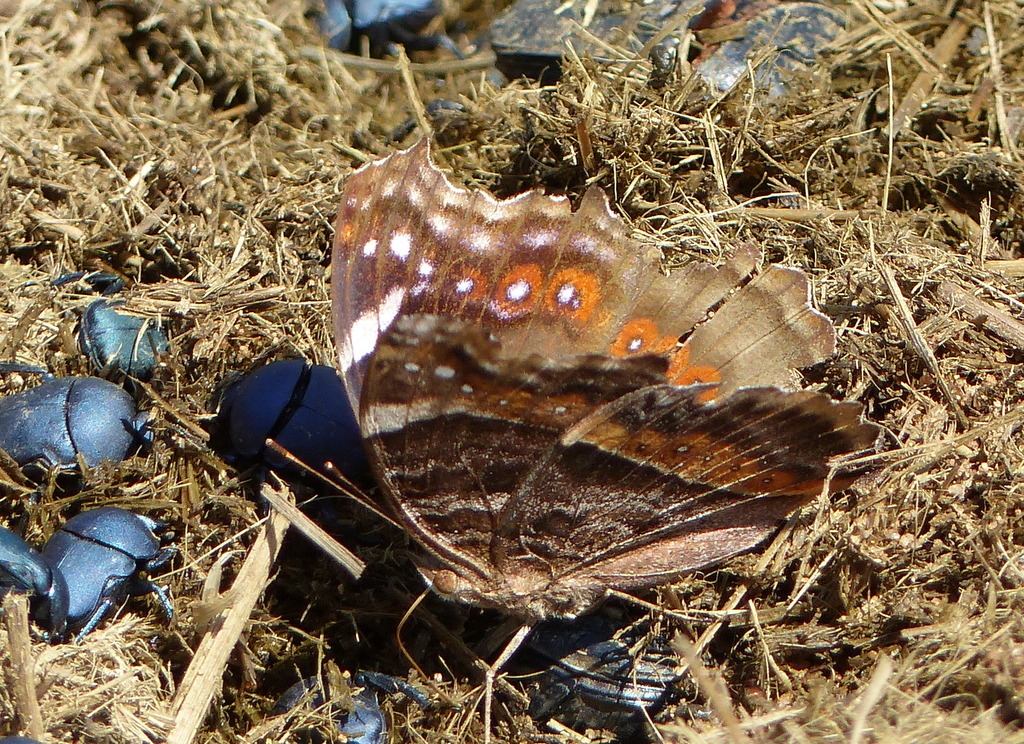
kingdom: Animalia
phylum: Arthropoda
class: Insecta
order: Lepidoptera
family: Nymphalidae
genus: Junonia
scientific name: Junonia archesia
